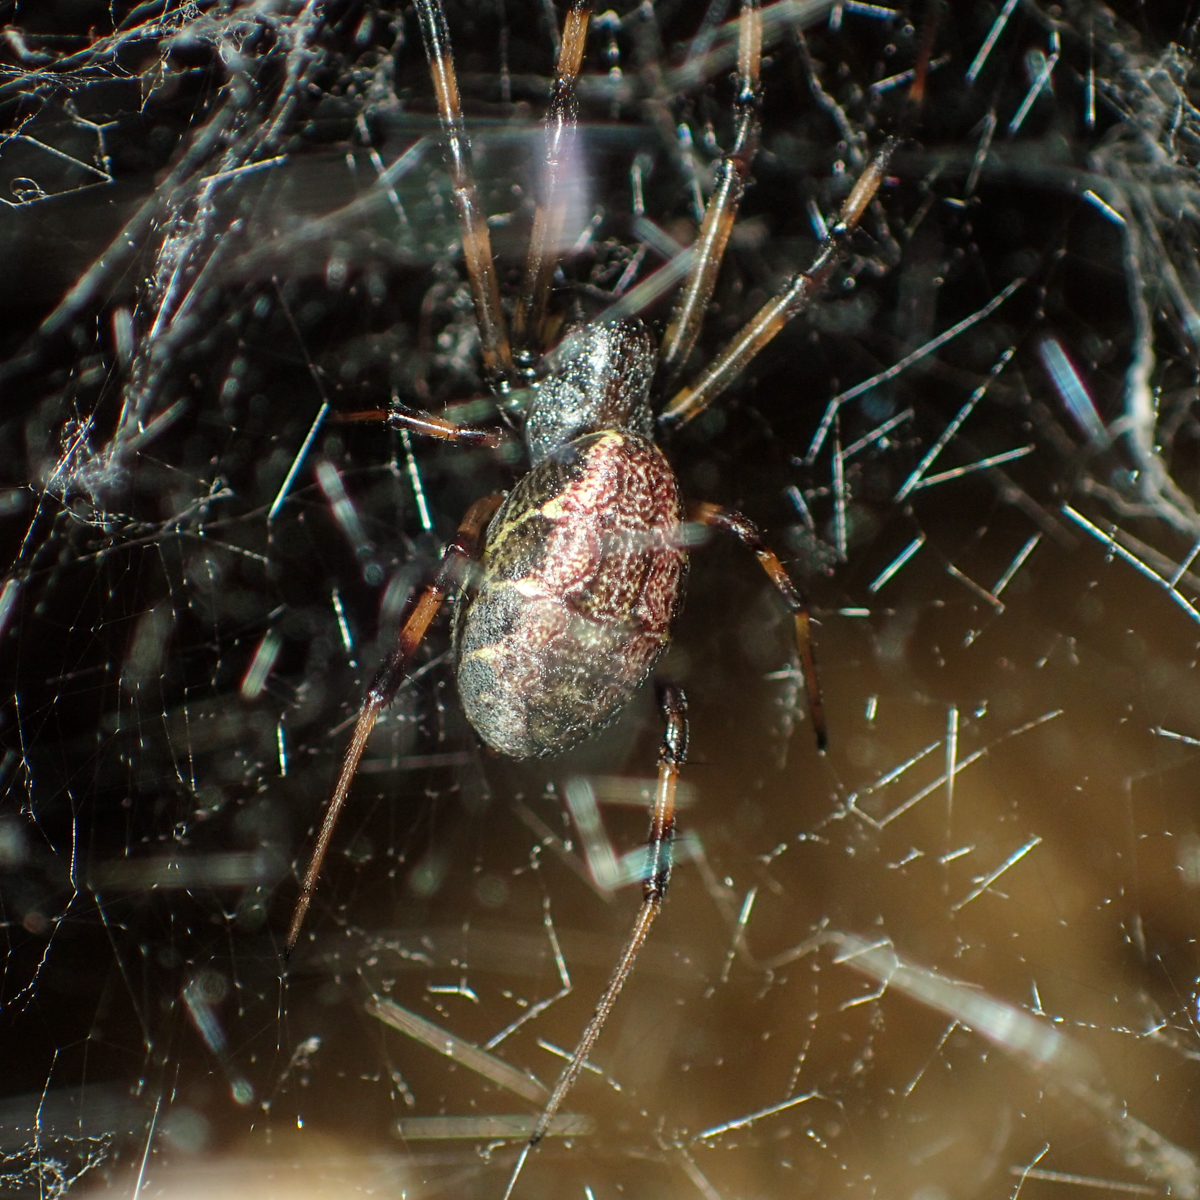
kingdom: Animalia
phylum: Arthropoda
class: Arachnida
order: Araneae
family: Araneidae
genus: Nephilengys
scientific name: Nephilengys malabarensis
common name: Asian hermit spider
